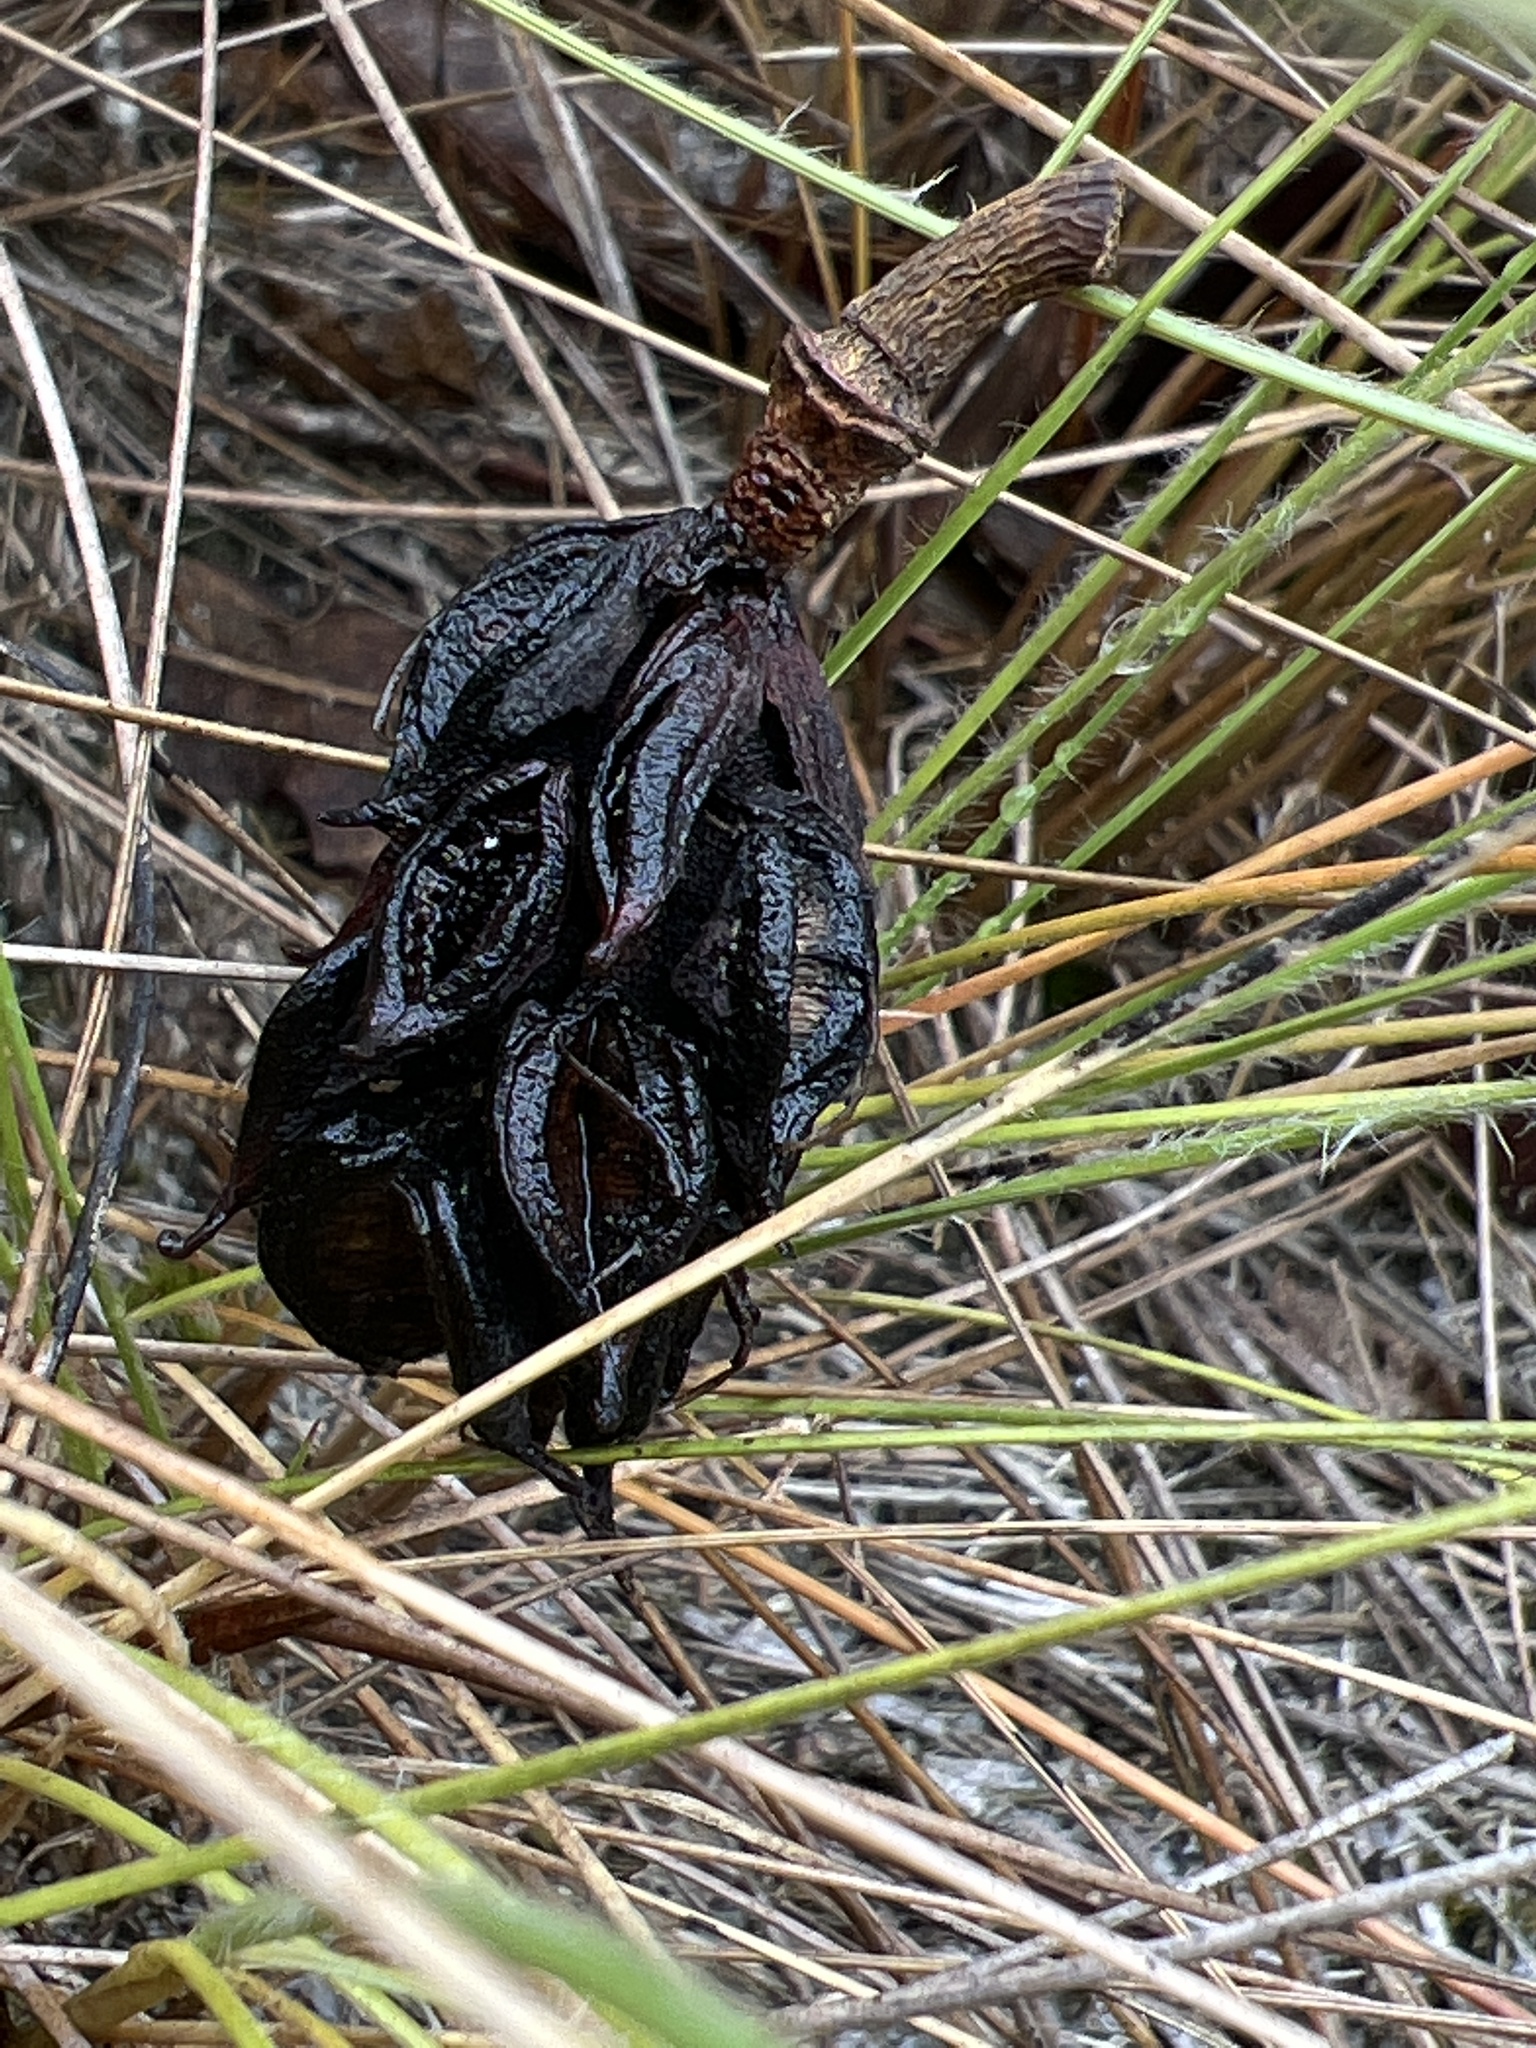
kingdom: Plantae
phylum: Tracheophyta
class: Magnoliopsida
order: Magnoliales
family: Magnoliaceae
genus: Magnolia
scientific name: Magnolia virginiana
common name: Swamp bay
